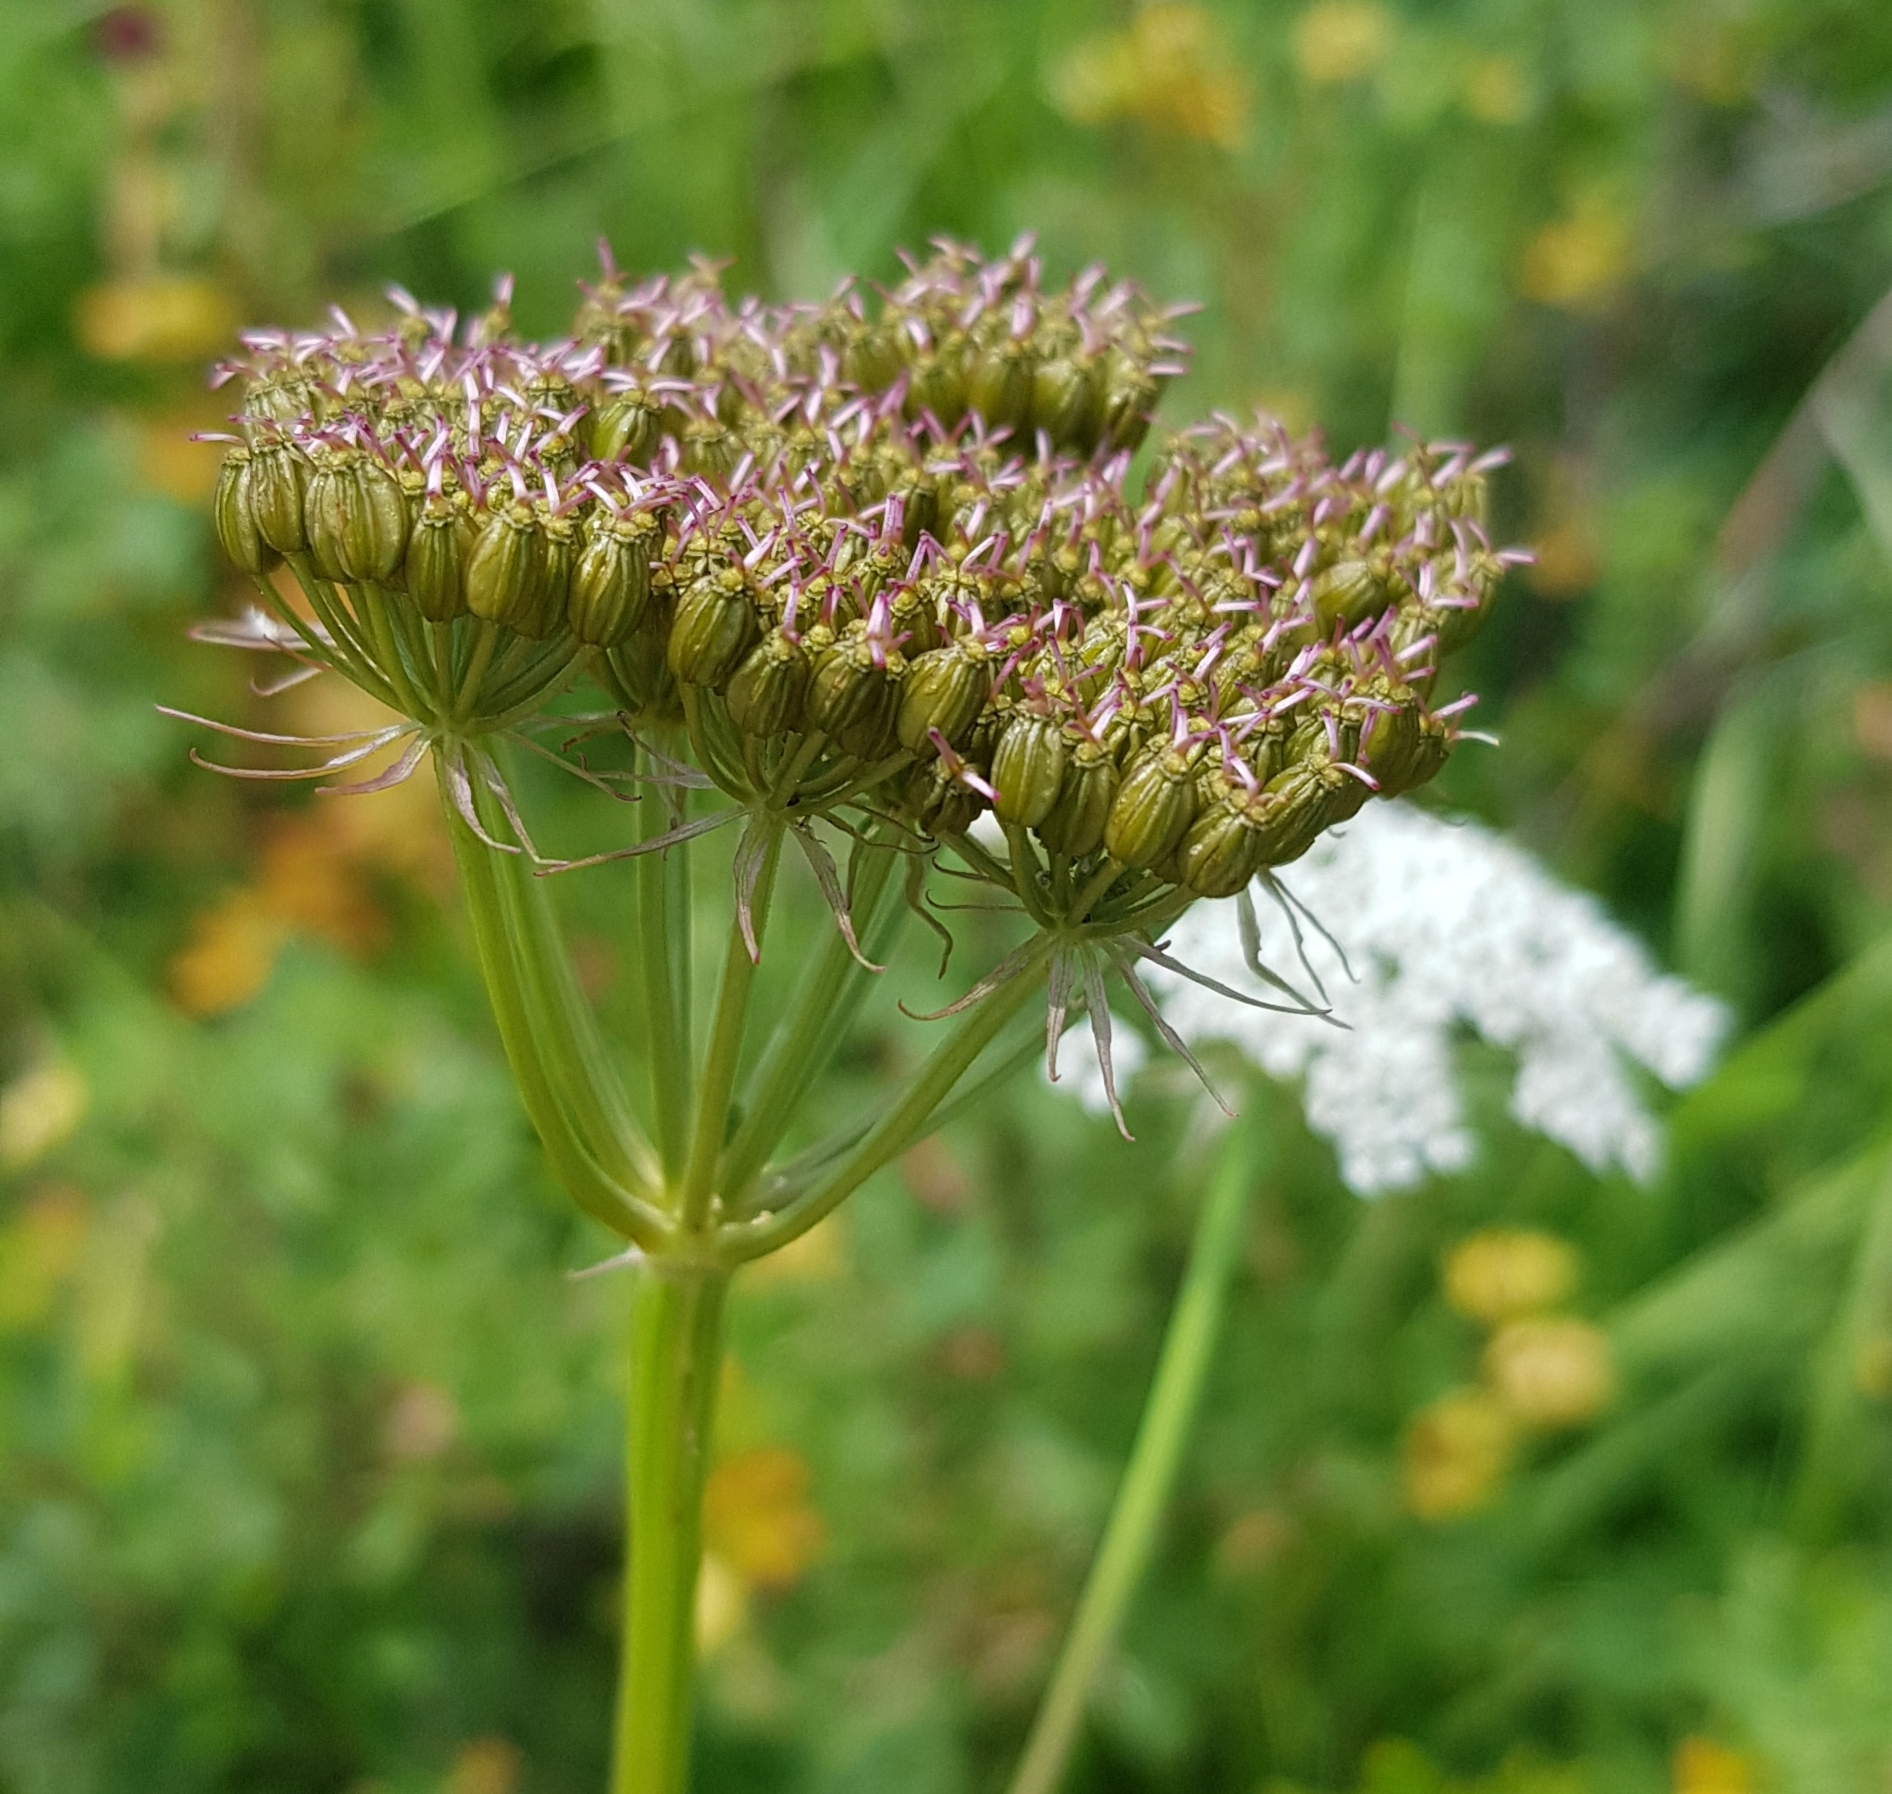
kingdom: Plantae
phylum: Tracheophyta
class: Magnoliopsida
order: Apiales
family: Apiaceae
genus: Conioselinum
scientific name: Conioselinum tataricum
